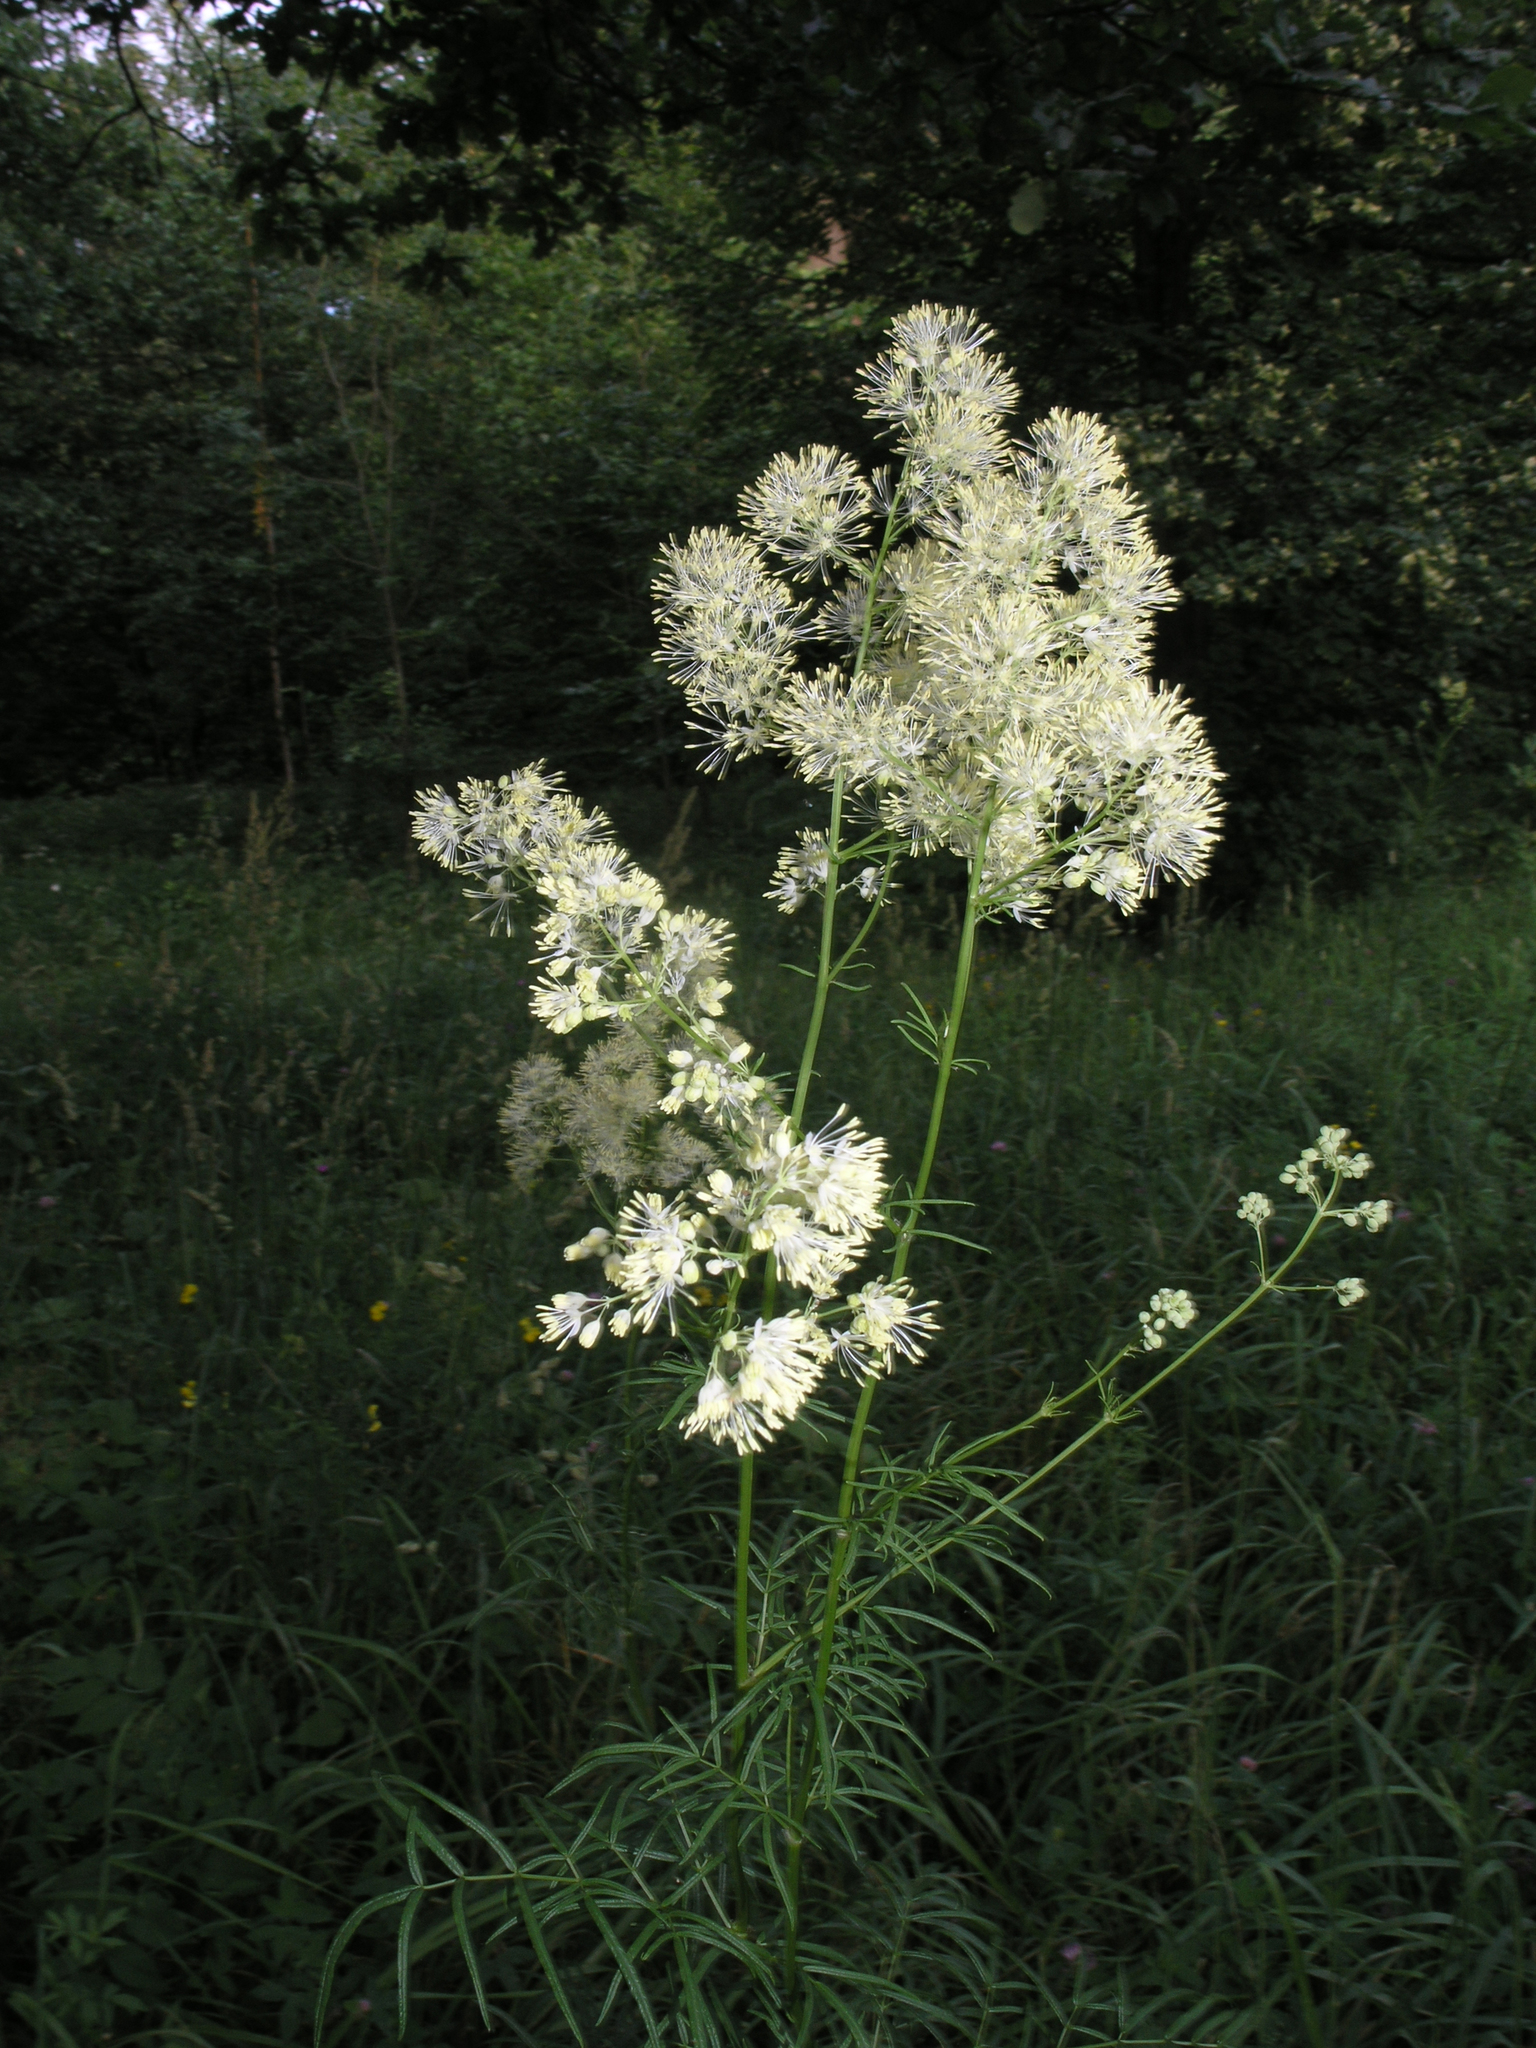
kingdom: Plantae
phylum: Tracheophyta
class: Magnoliopsida
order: Ranunculales
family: Ranunculaceae
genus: Thalictrum
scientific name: Thalictrum lucidum
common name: Shining meadow-rue
